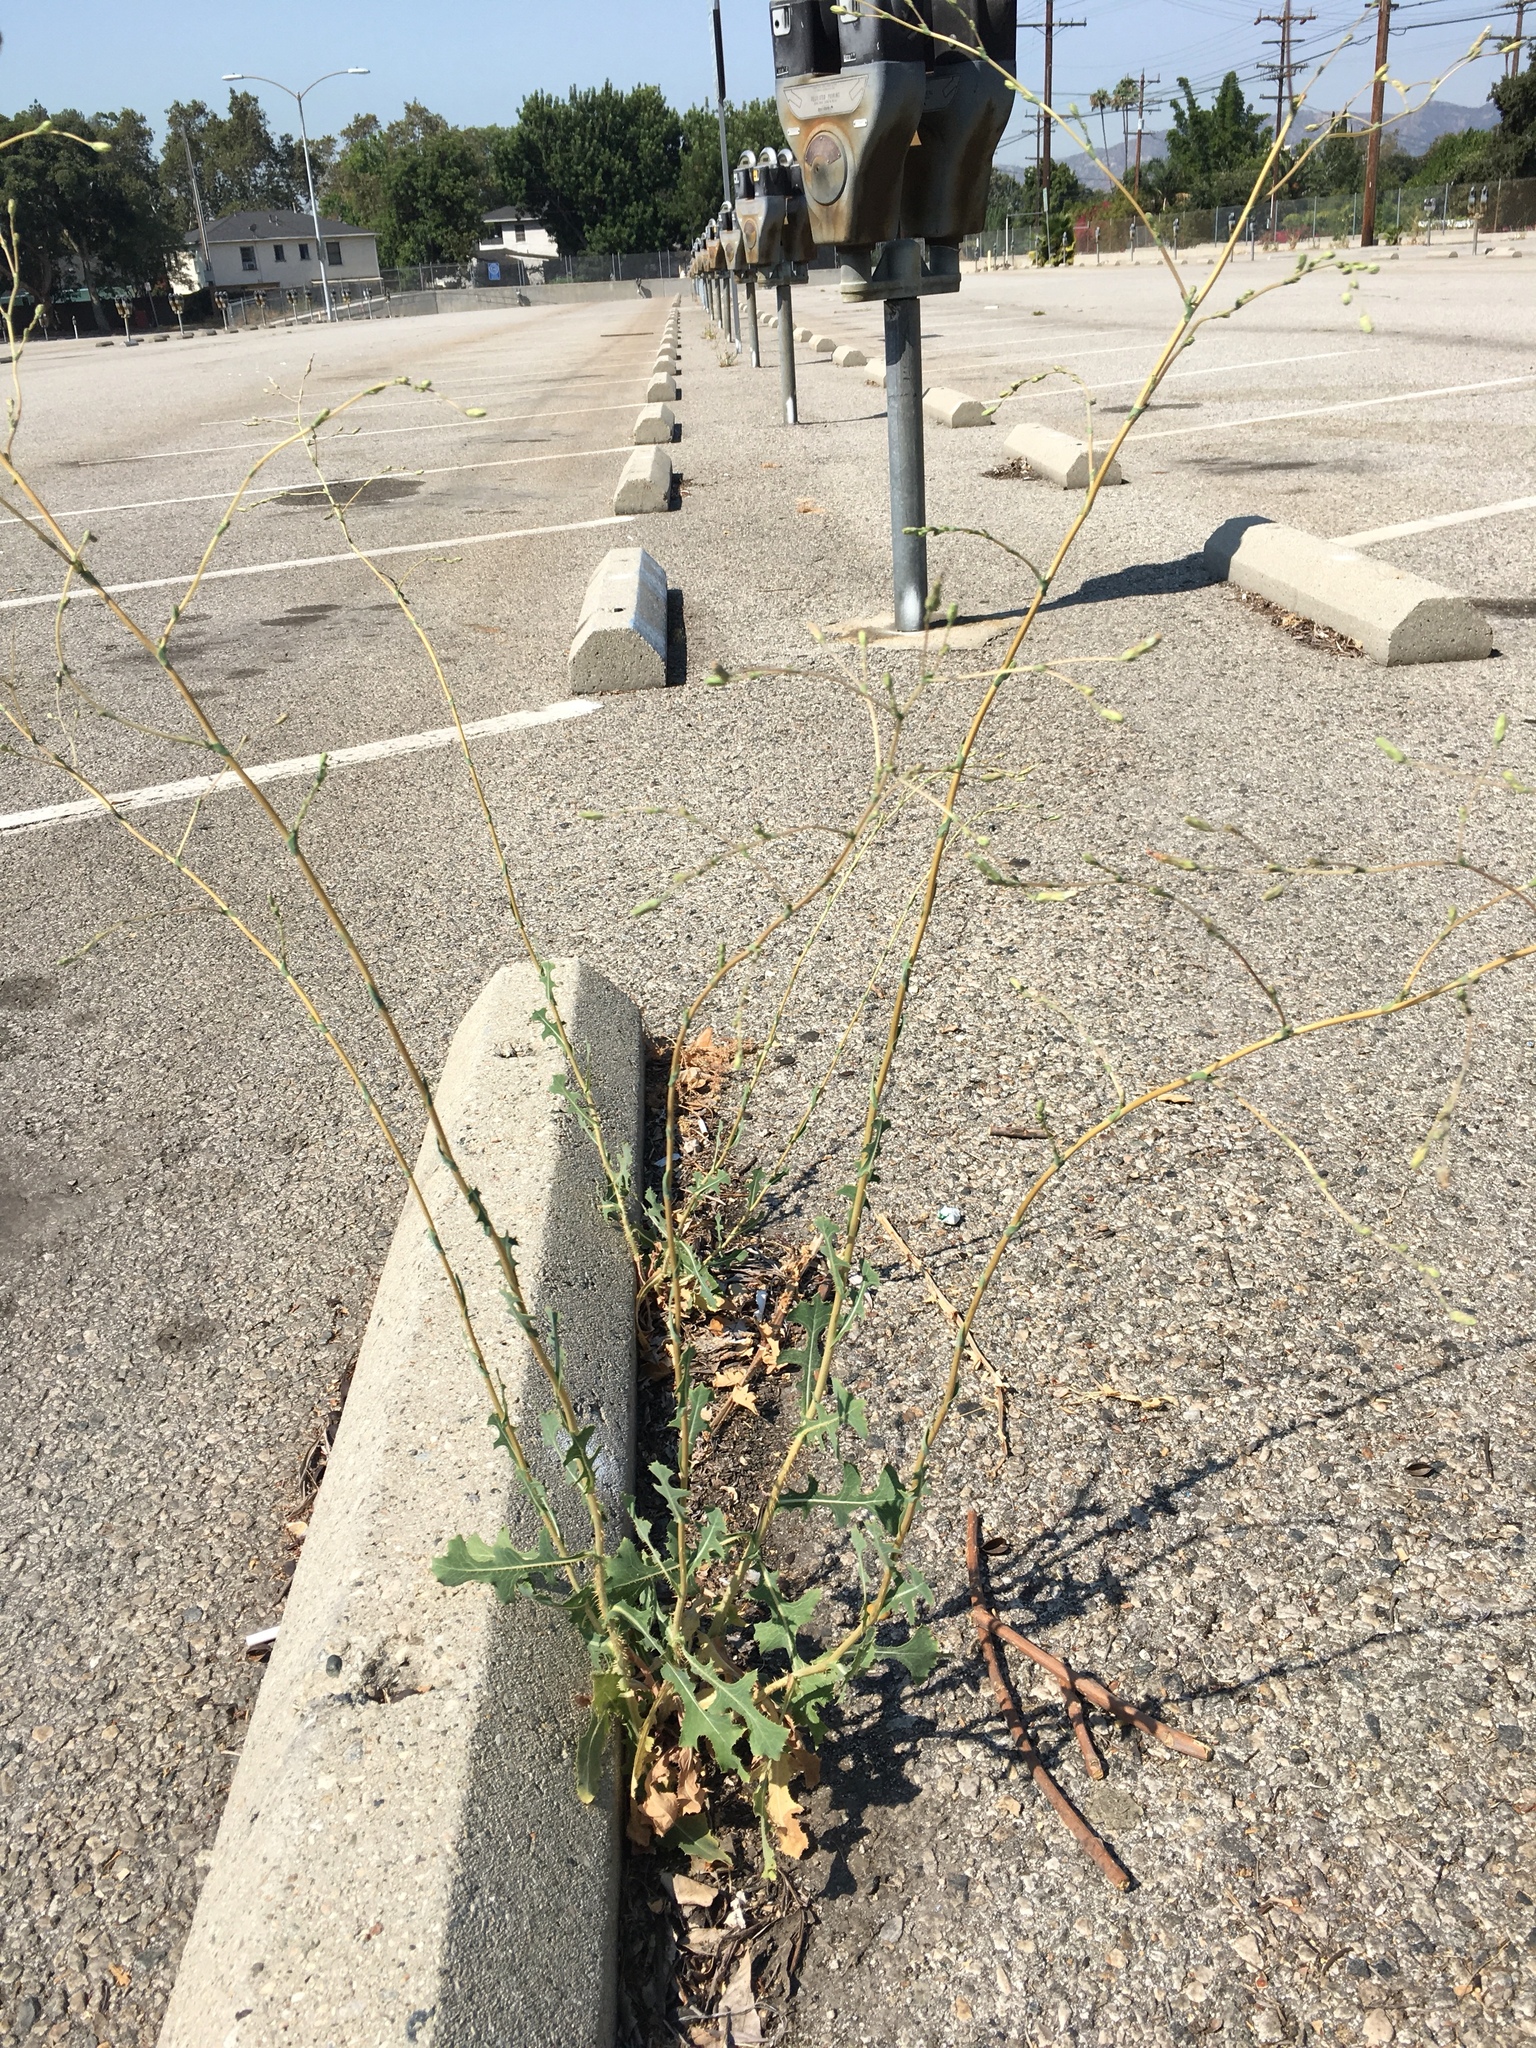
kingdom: Plantae
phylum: Tracheophyta
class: Magnoliopsida
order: Asterales
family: Asteraceae
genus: Lactuca
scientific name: Lactuca serriola
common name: Prickly lettuce
